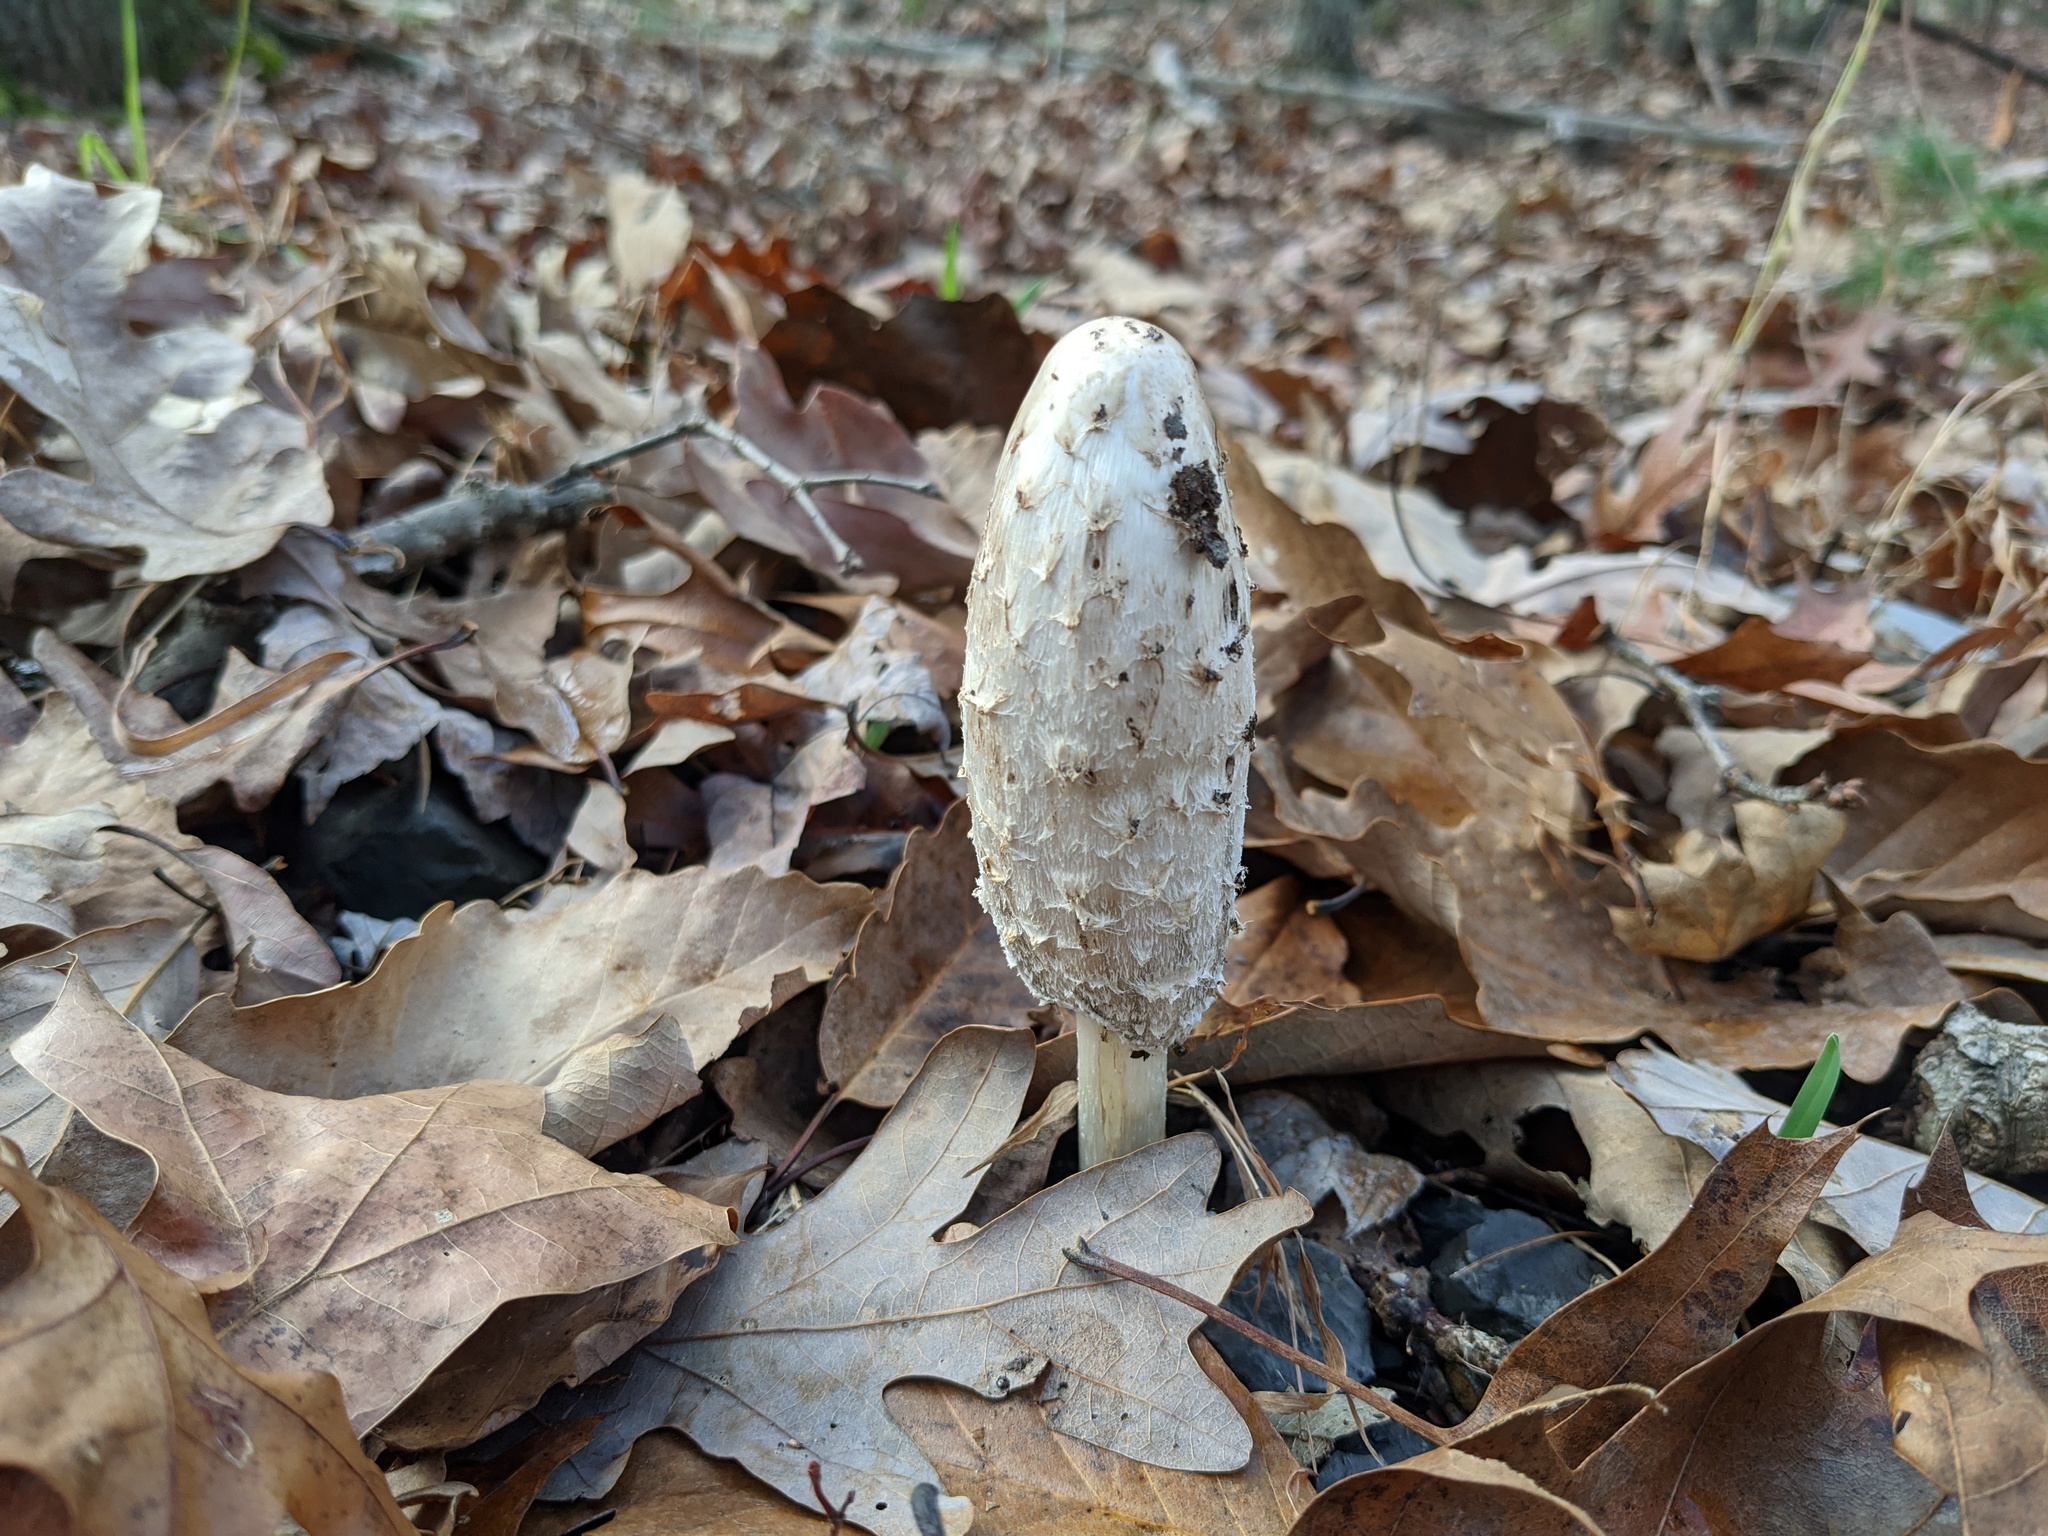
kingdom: Fungi
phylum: Basidiomycota
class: Agaricomycetes
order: Agaricales
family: Agaricaceae
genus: Coprinus
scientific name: Coprinus comatus
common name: Lawyer's wig
